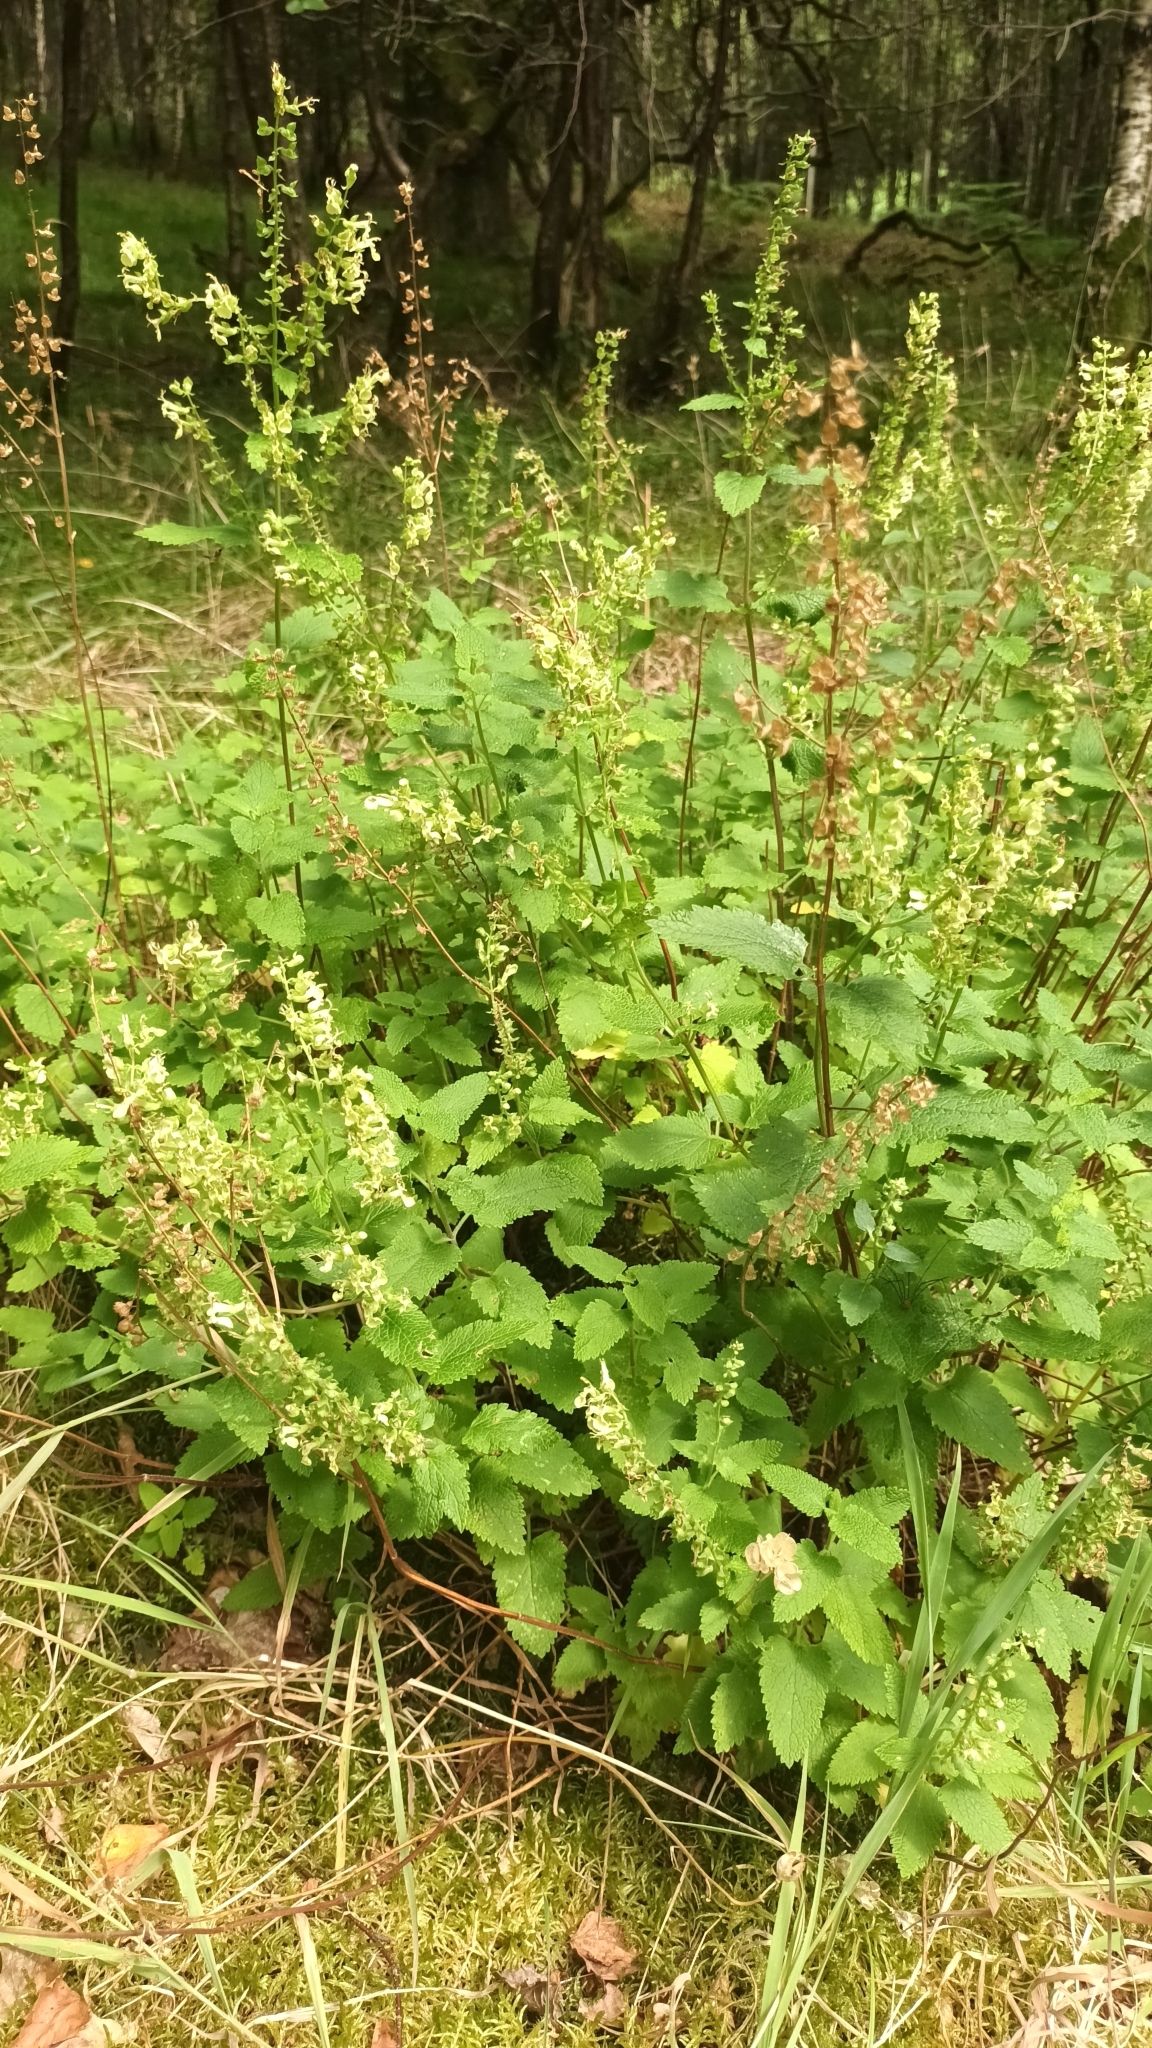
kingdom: Plantae
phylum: Tracheophyta
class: Magnoliopsida
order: Lamiales
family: Lamiaceae
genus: Teucrium
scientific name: Teucrium scorodonia
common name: Woodland germander
